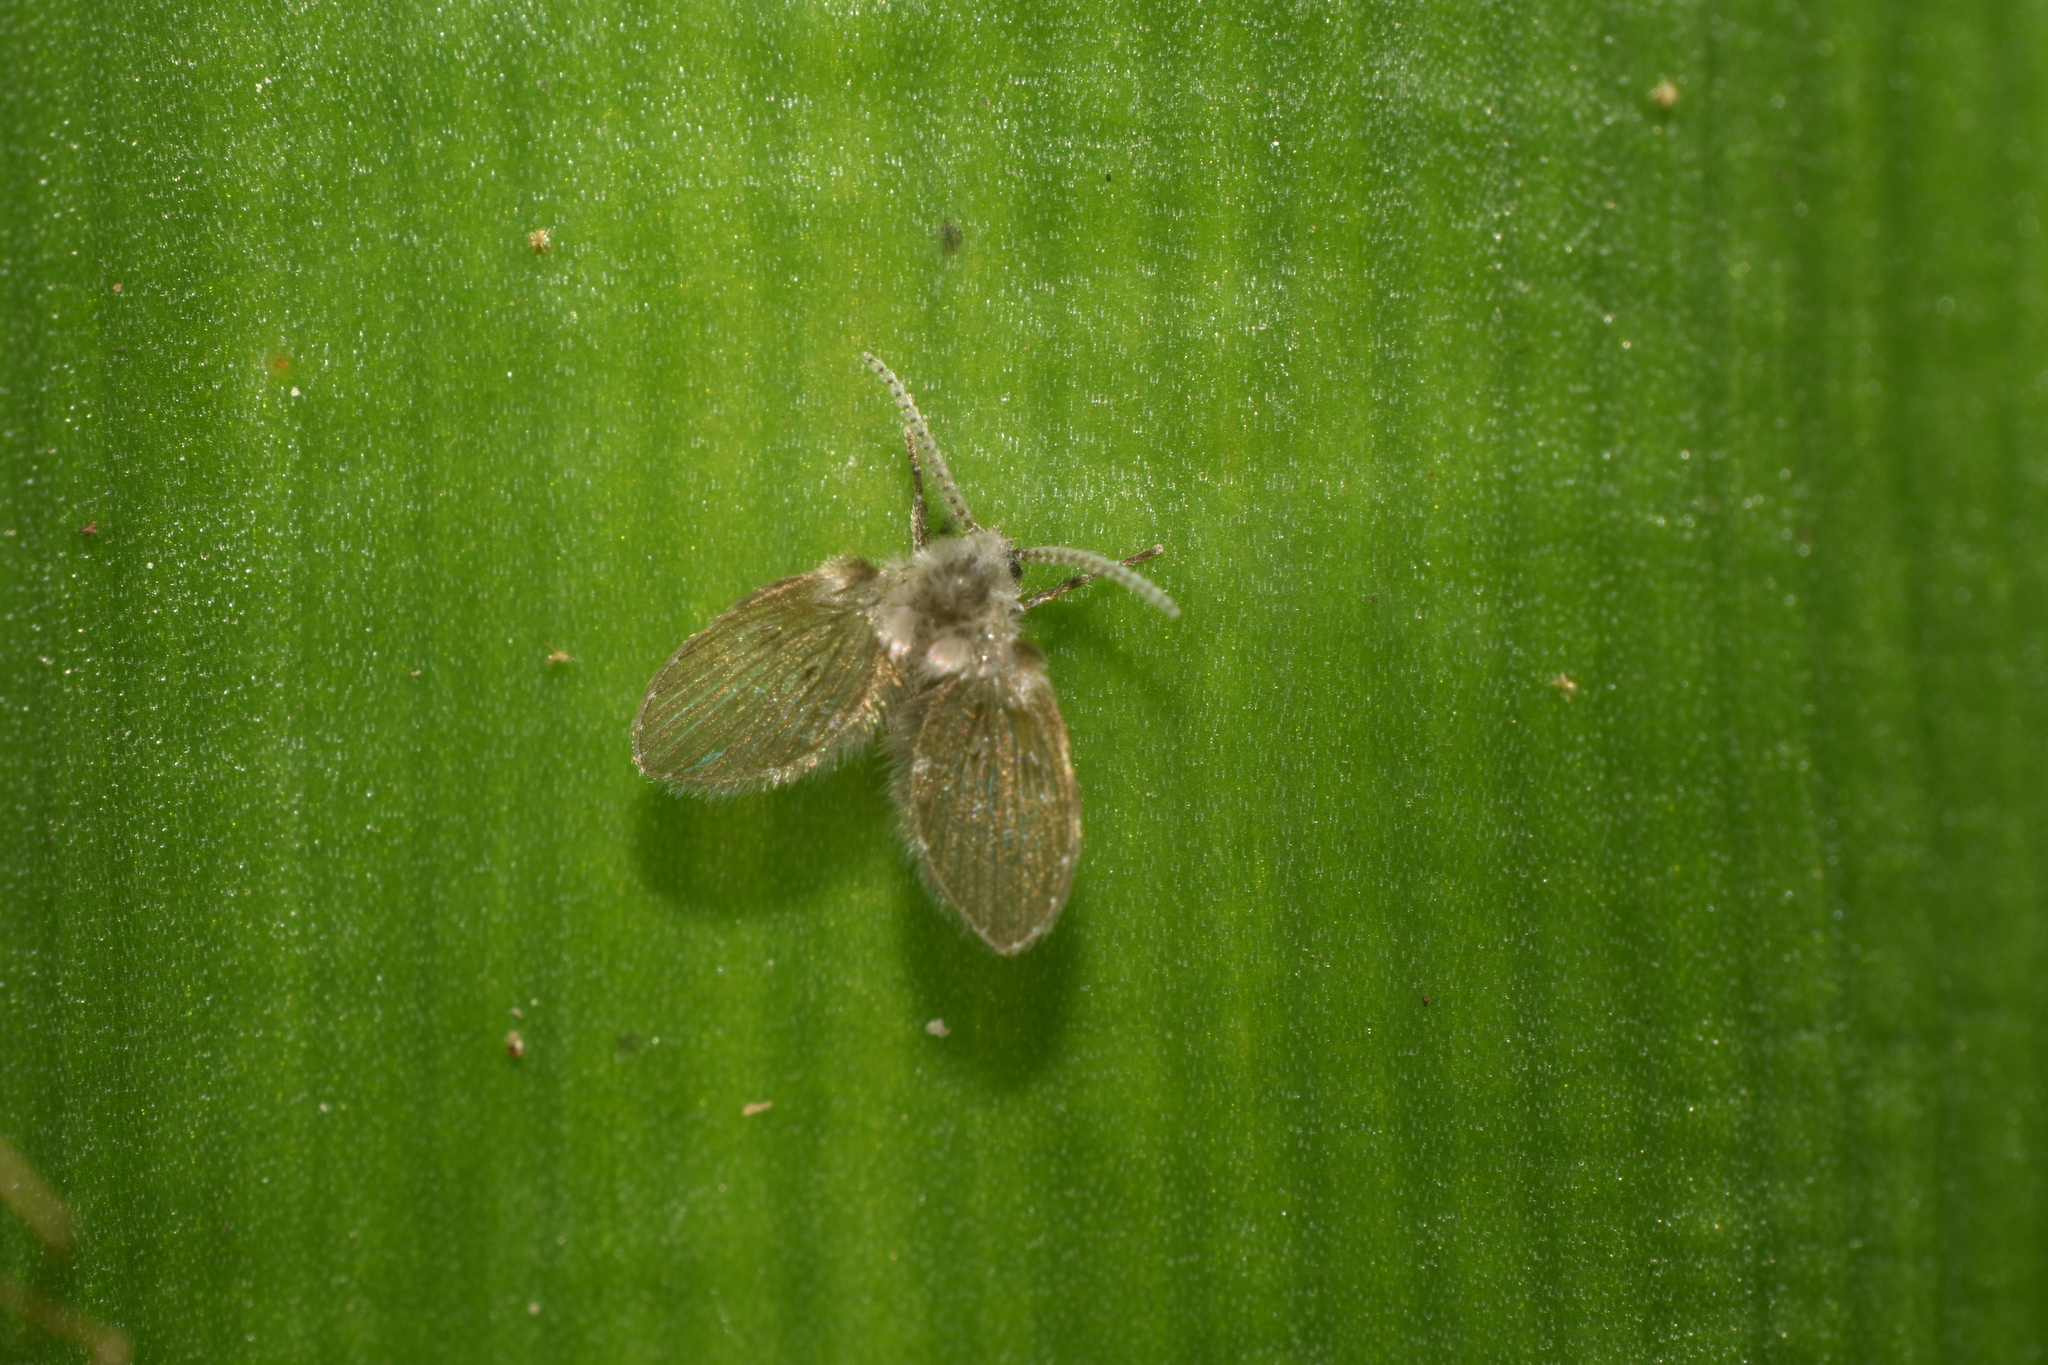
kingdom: Animalia
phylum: Arthropoda
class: Insecta
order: Diptera
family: Psychodidae
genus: Clogmia
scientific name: Clogmia albipunctatus
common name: White-spotted moth fly
